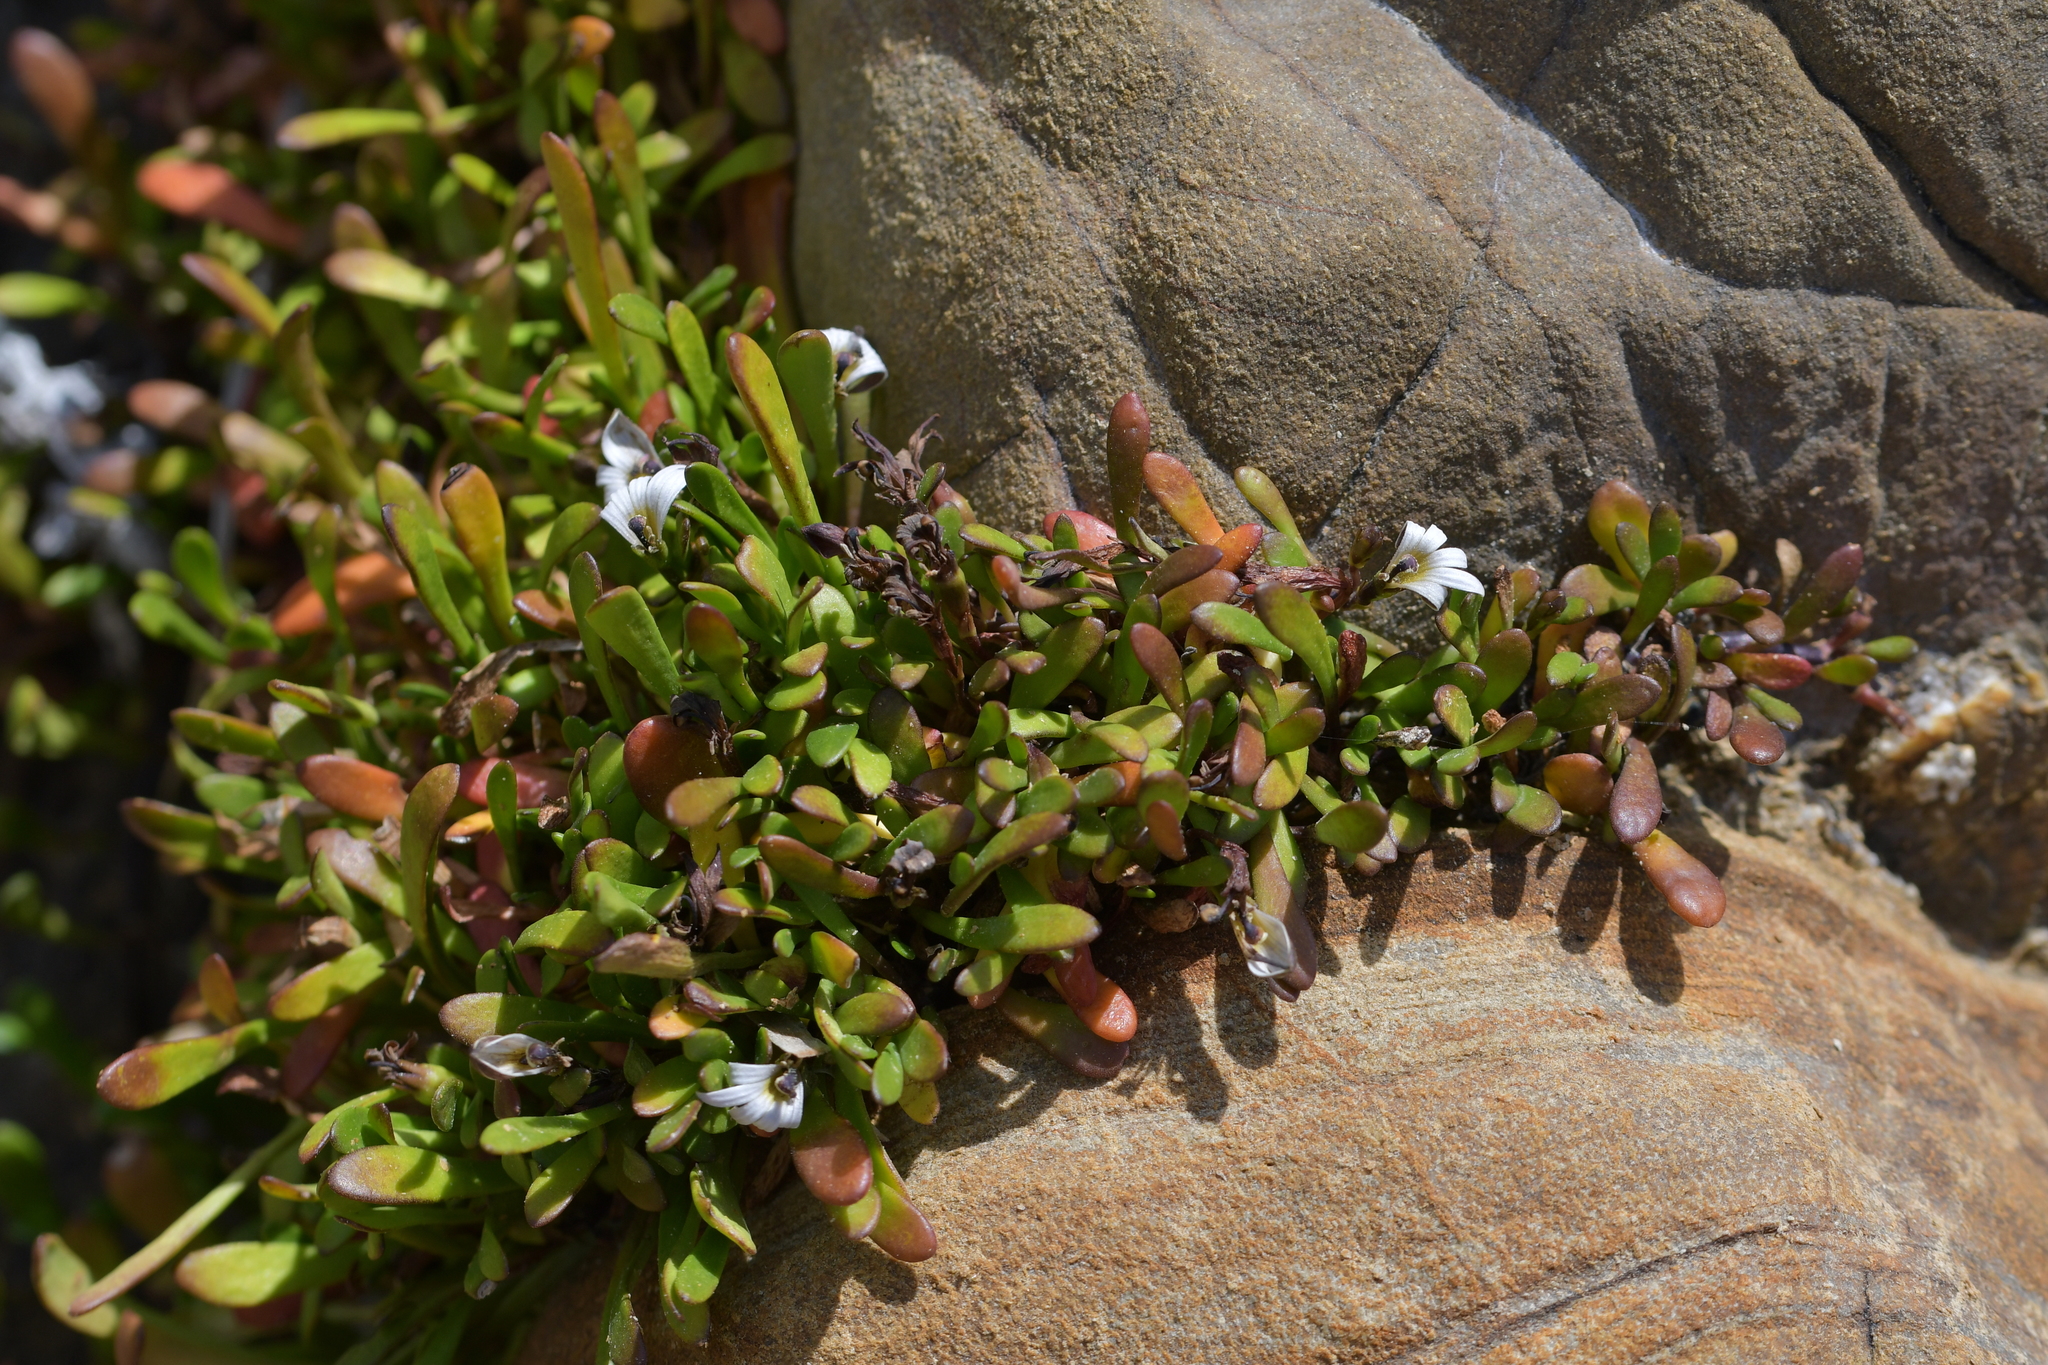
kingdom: Plantae
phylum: Tracheophyta
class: Magnoliopsida
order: Asterales
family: Goodeniaceae
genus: Goodenia
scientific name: Goodenia radicans
